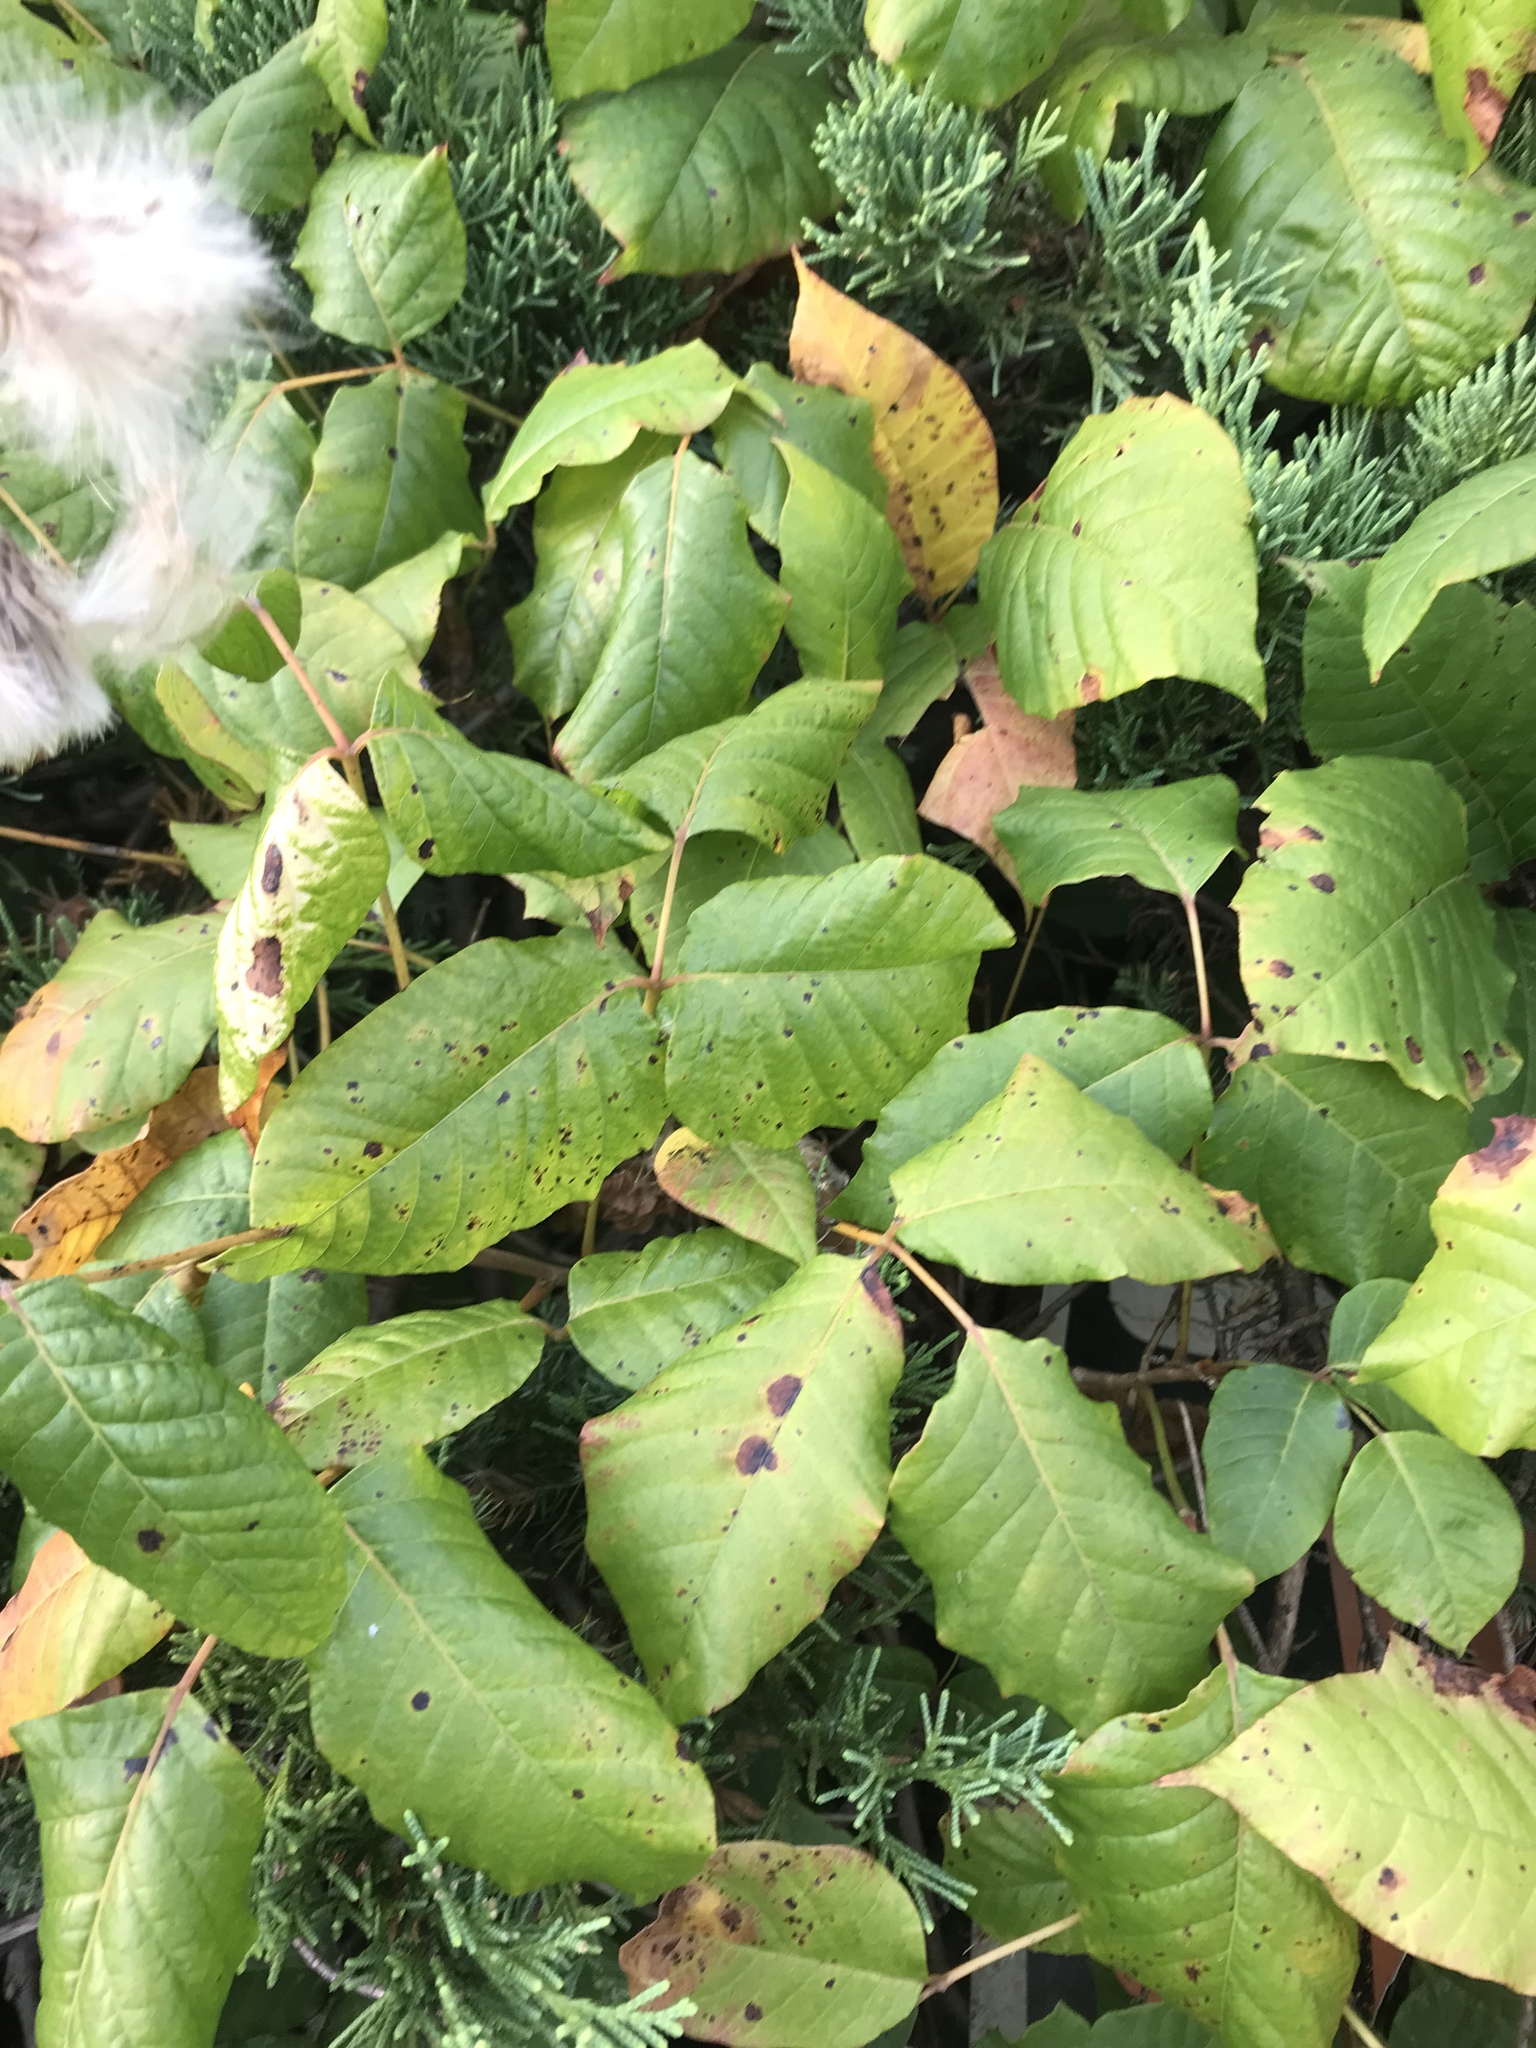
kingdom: Plantae
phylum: Tracheophyta
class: Magnoliopsida
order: Sapindales
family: Anacardiaceae
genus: Toxicodendron
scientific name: Toxicodendron radicans
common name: Poison ivy
